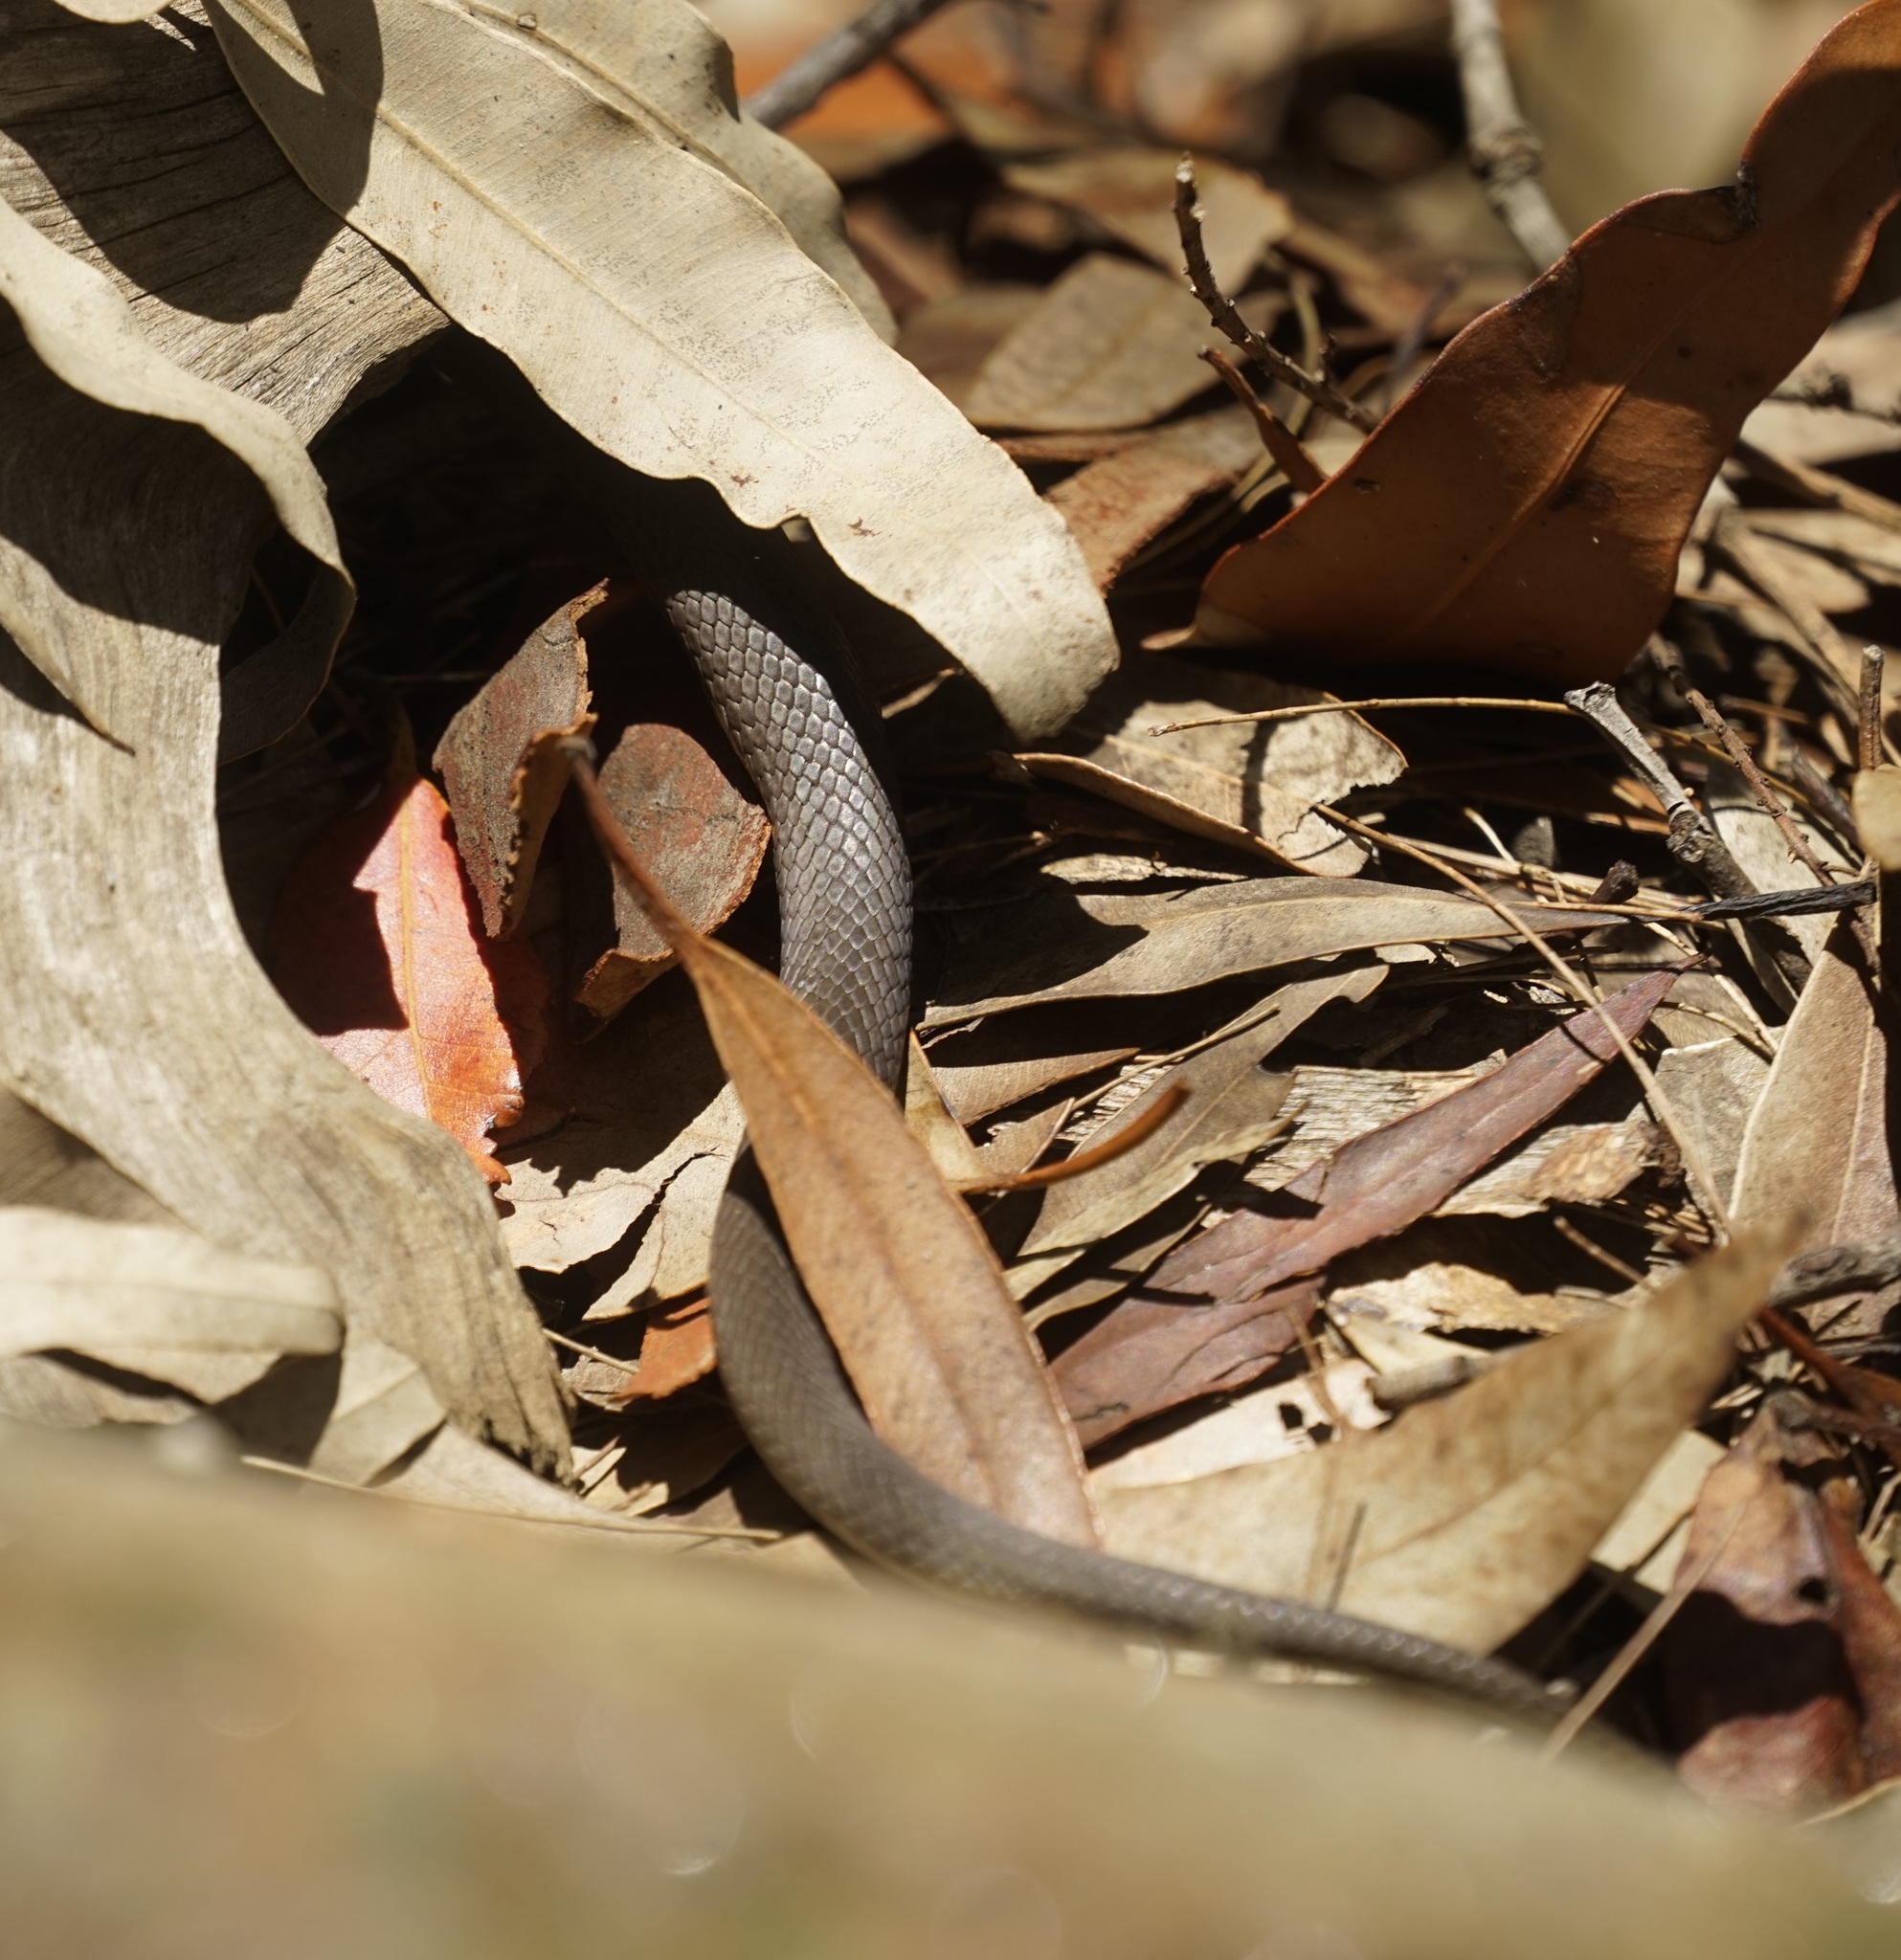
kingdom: Animalia
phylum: Chordata
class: Squamata
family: Elapidae
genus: Hemiaspis
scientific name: Hemiaspis signata
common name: Black-bellied swamp snake
